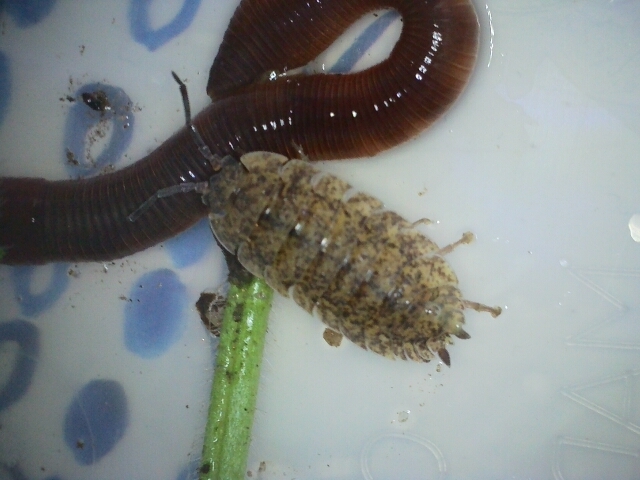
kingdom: Animalia
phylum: Arthropoda
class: Malacostraca
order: Isopoda
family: Porcellionidae
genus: Porcellio
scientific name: Porcellio scaber
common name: Common rough woodlouse
